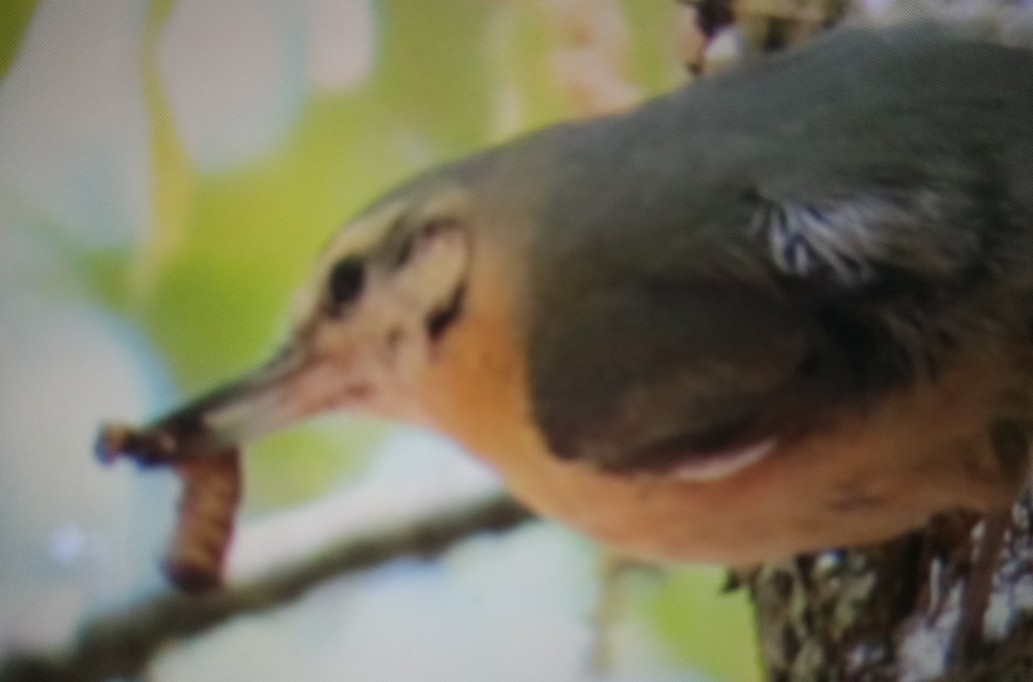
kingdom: Animalia
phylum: Chordata
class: Aves
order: Passeriformes
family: Sittidae
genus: Sitta
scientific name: Sitta ledanti
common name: Algerian nuthatch
